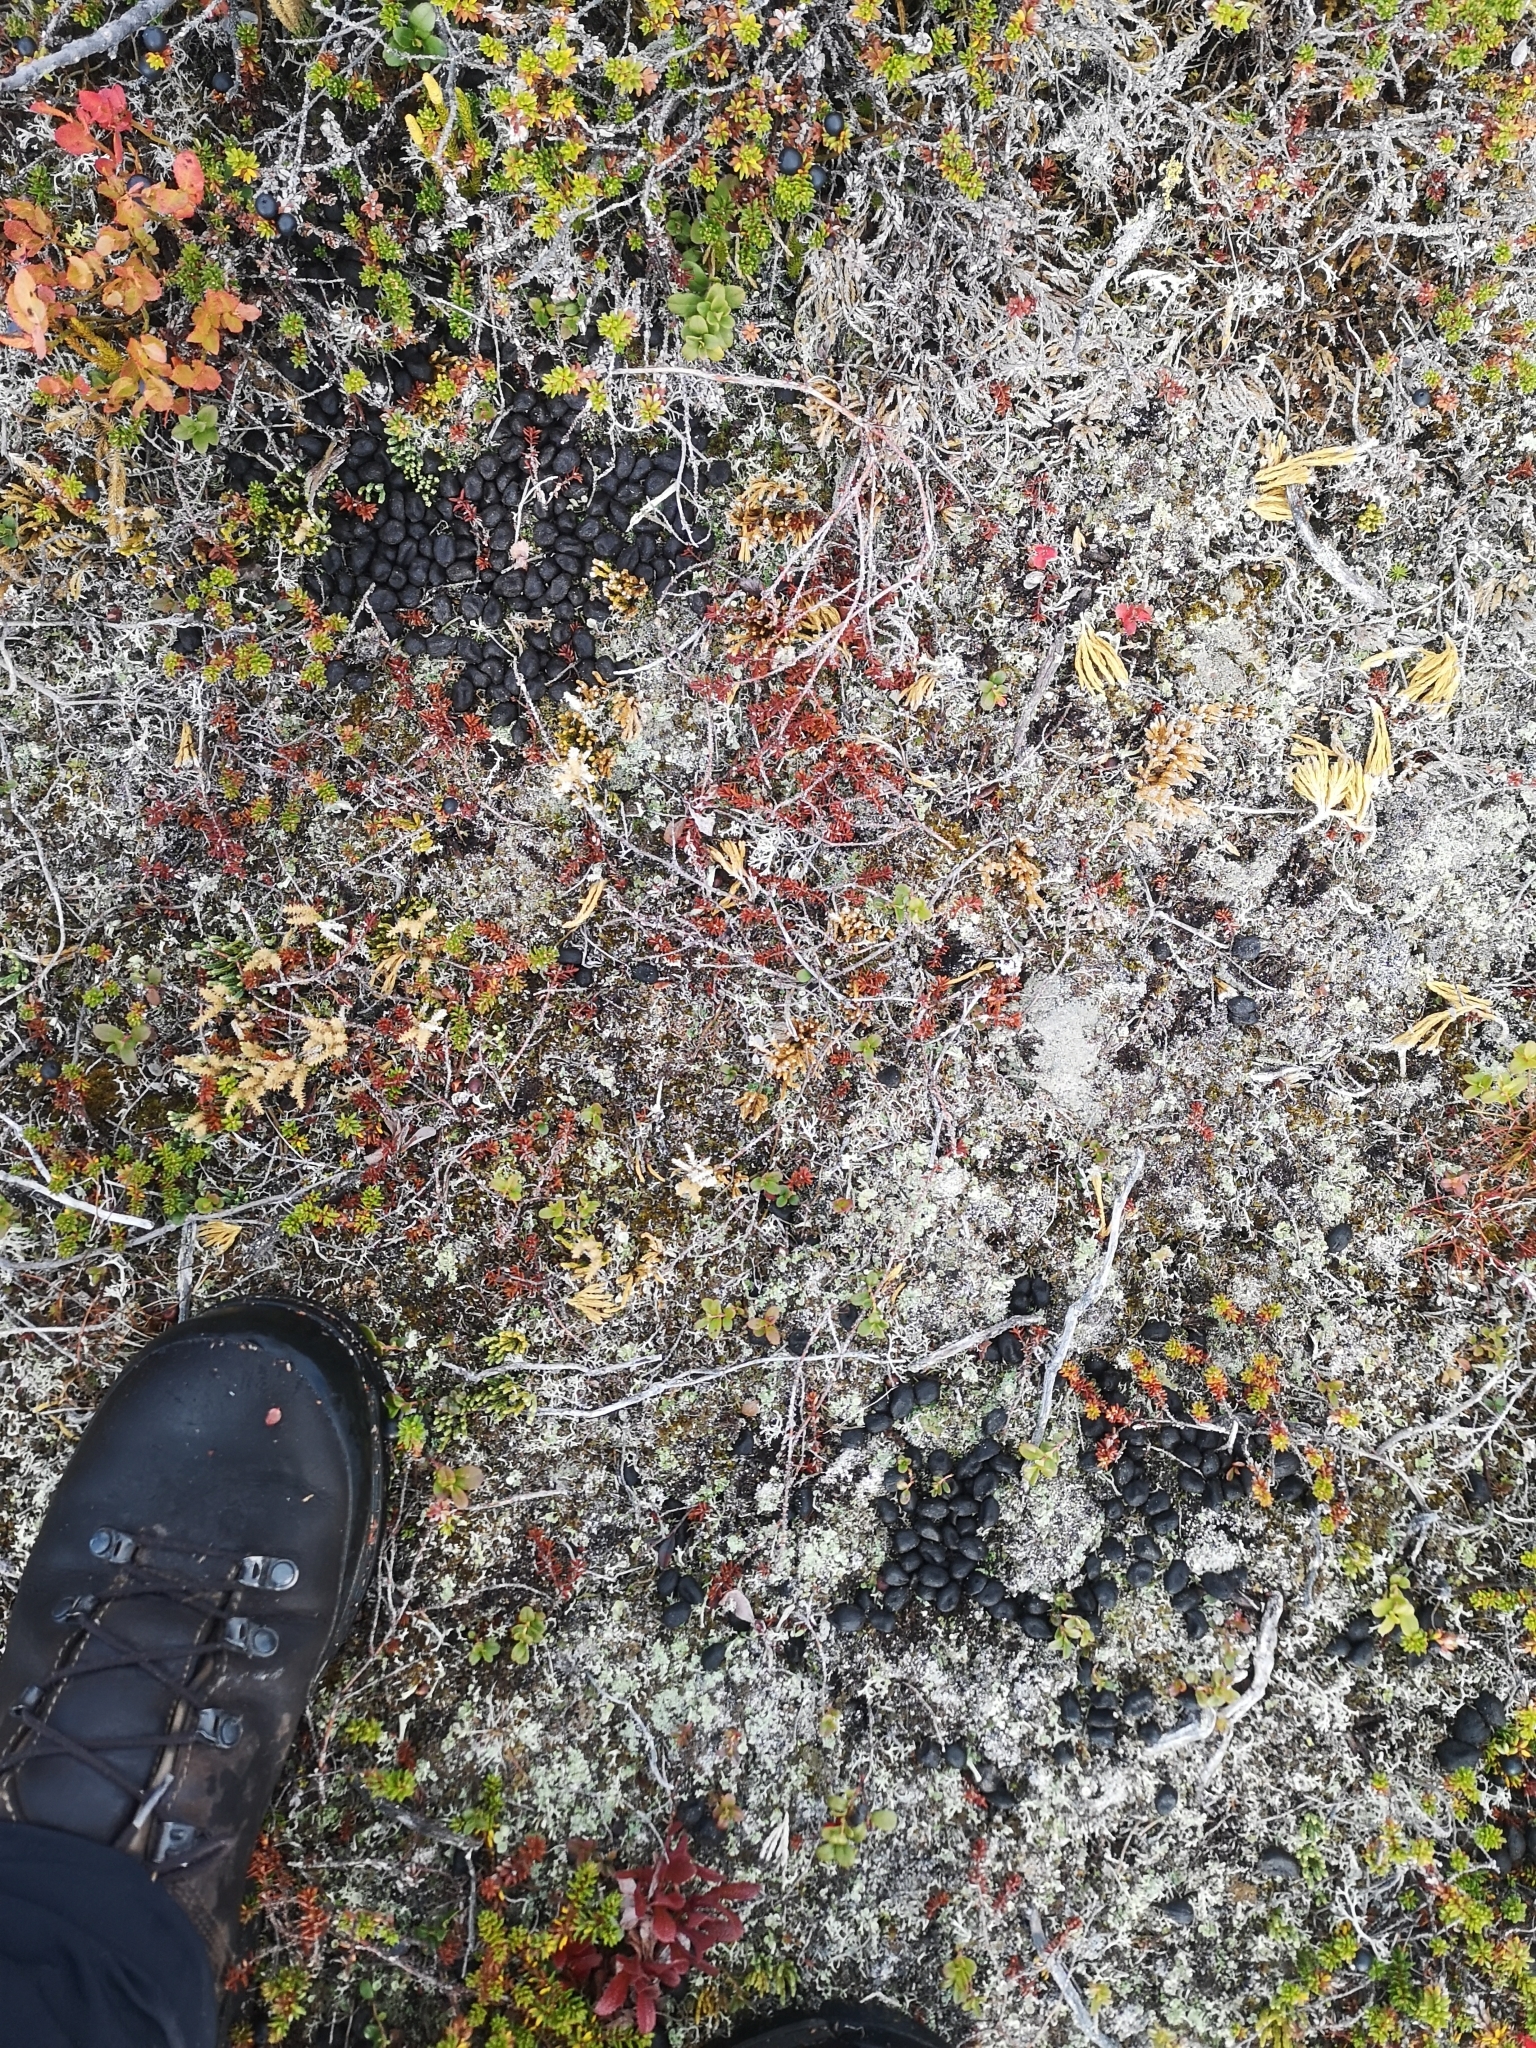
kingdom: Animalia
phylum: Chordata
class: Mammalia
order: Artiodactyla
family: Cervidae
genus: Rangifer
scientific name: Rangifer tarandus
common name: Reindeer
